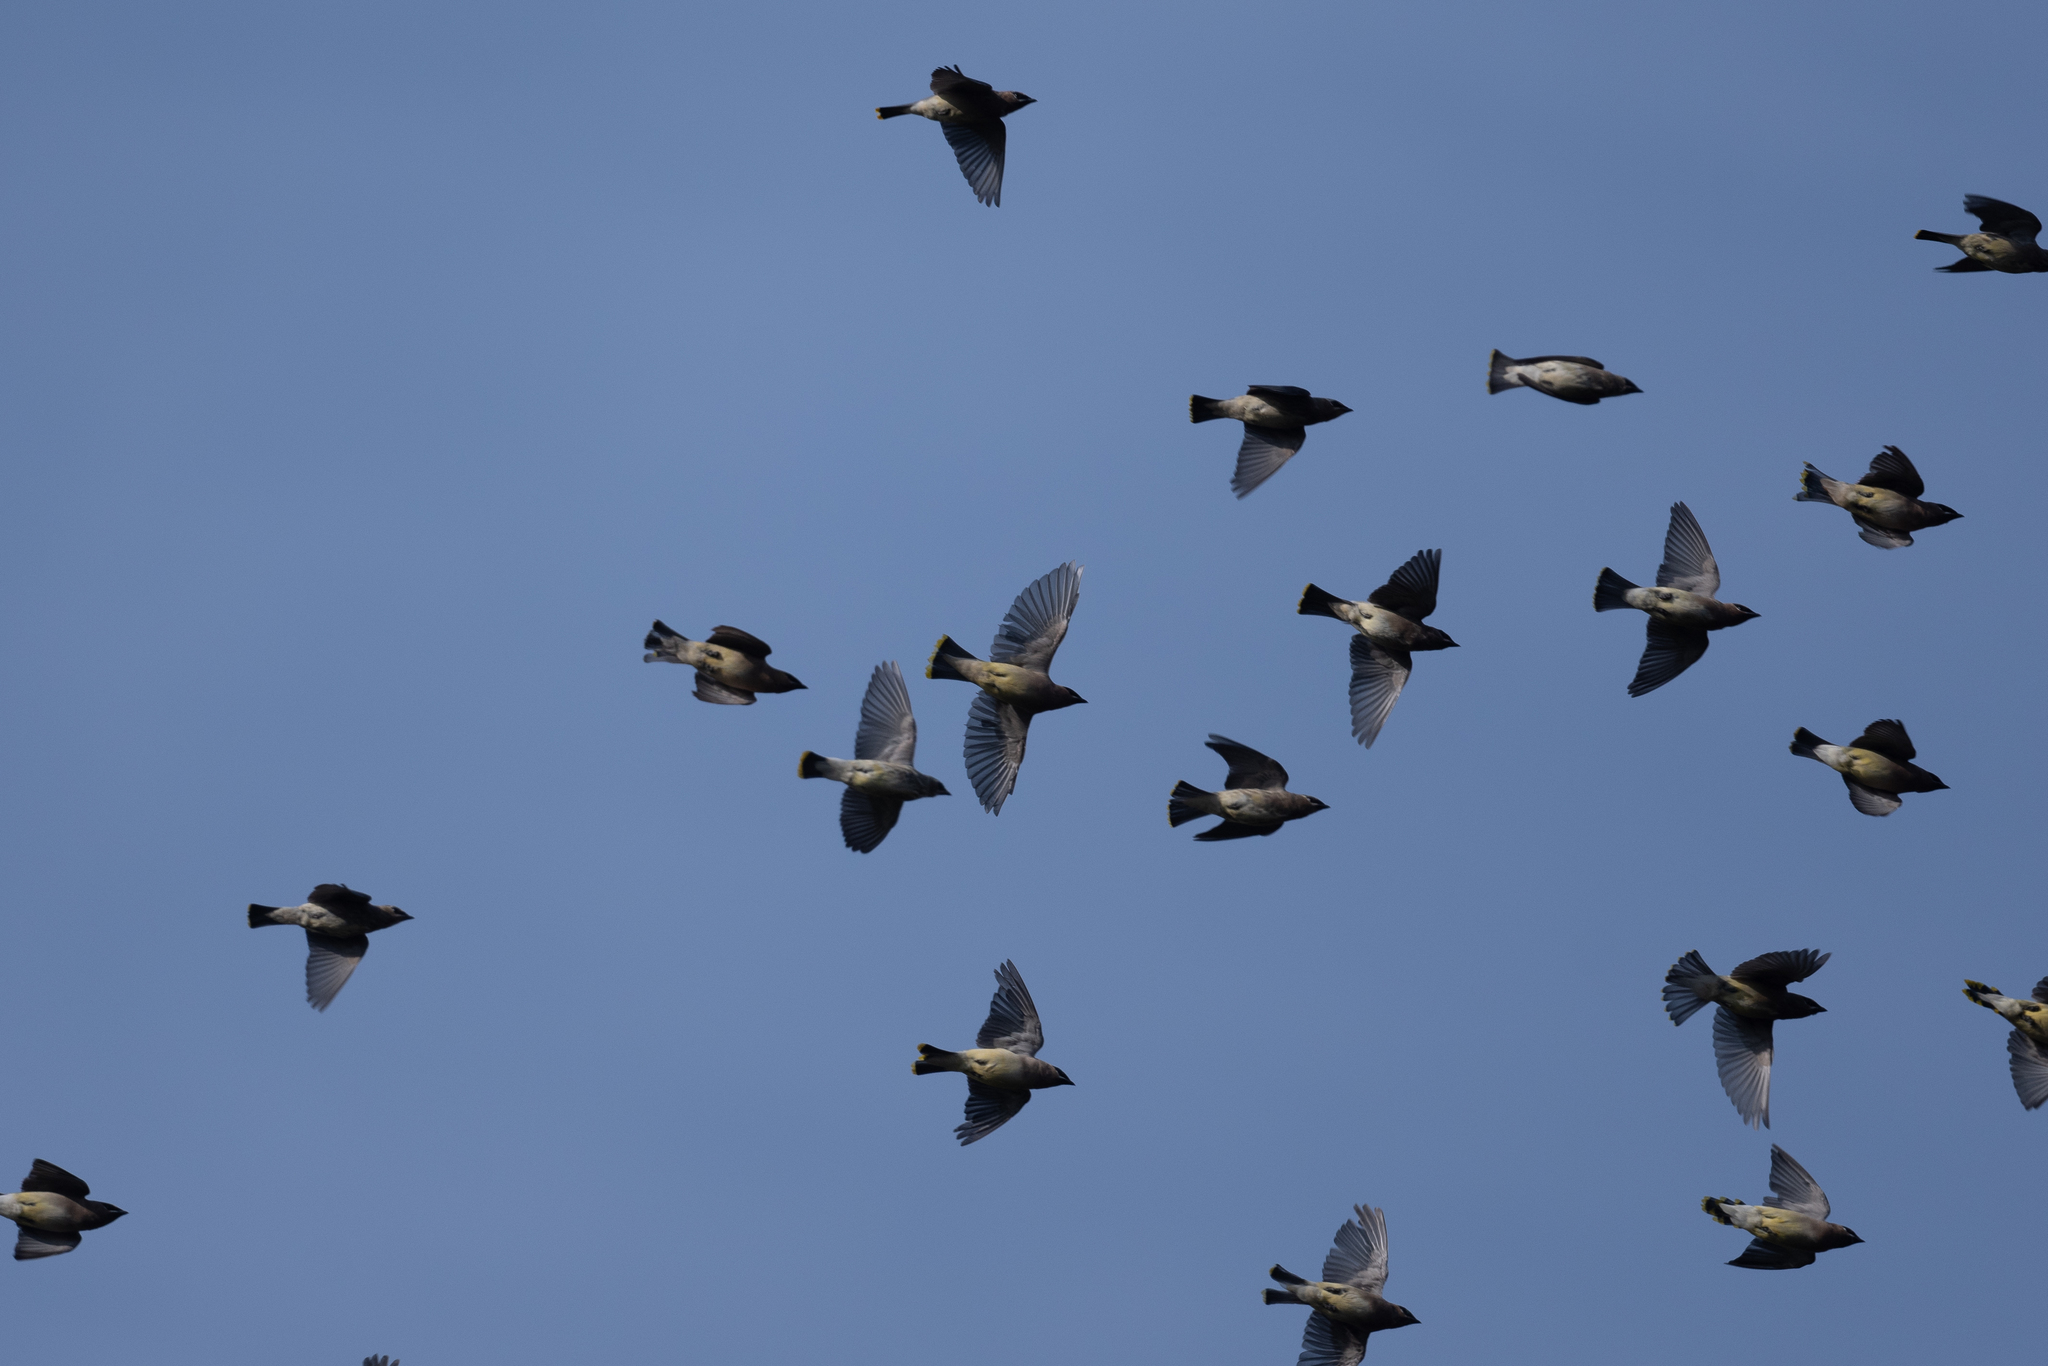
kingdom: Animalia
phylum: Chordata
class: Aves
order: Passeriformes
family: Bombycillidae
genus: Bombycilla
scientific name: Bombycilla cedrorum
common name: Cedar waxwing
